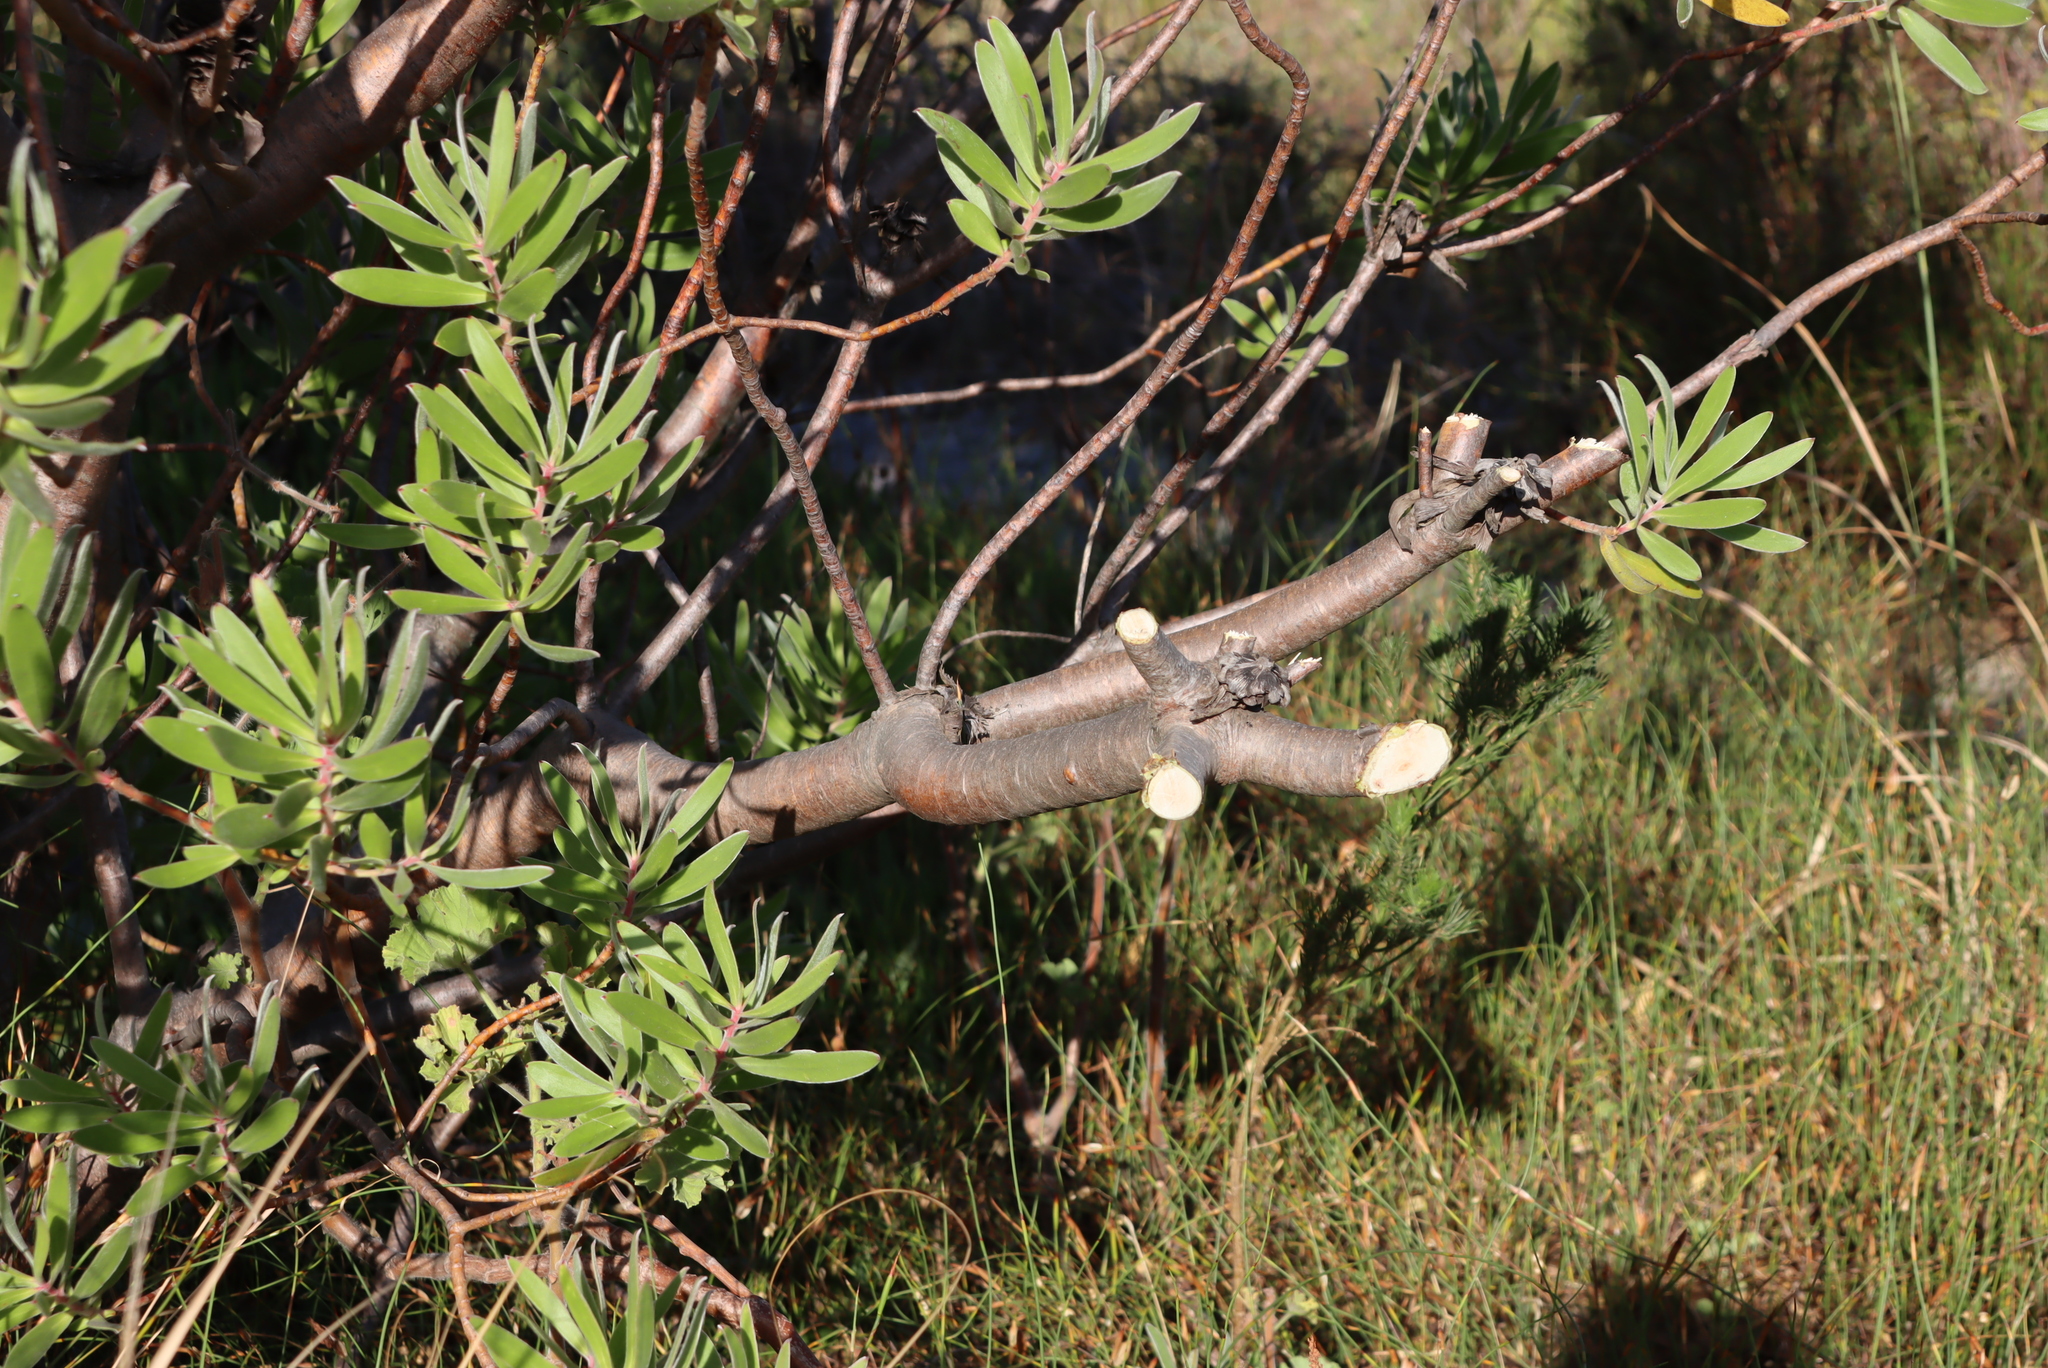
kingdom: Plantae
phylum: Tracheophyta
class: Magnoliopsida
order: Proteales
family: Proteaceae
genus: Leucadendron
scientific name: Leucadendron laureolum
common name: Golden sunshinebush
